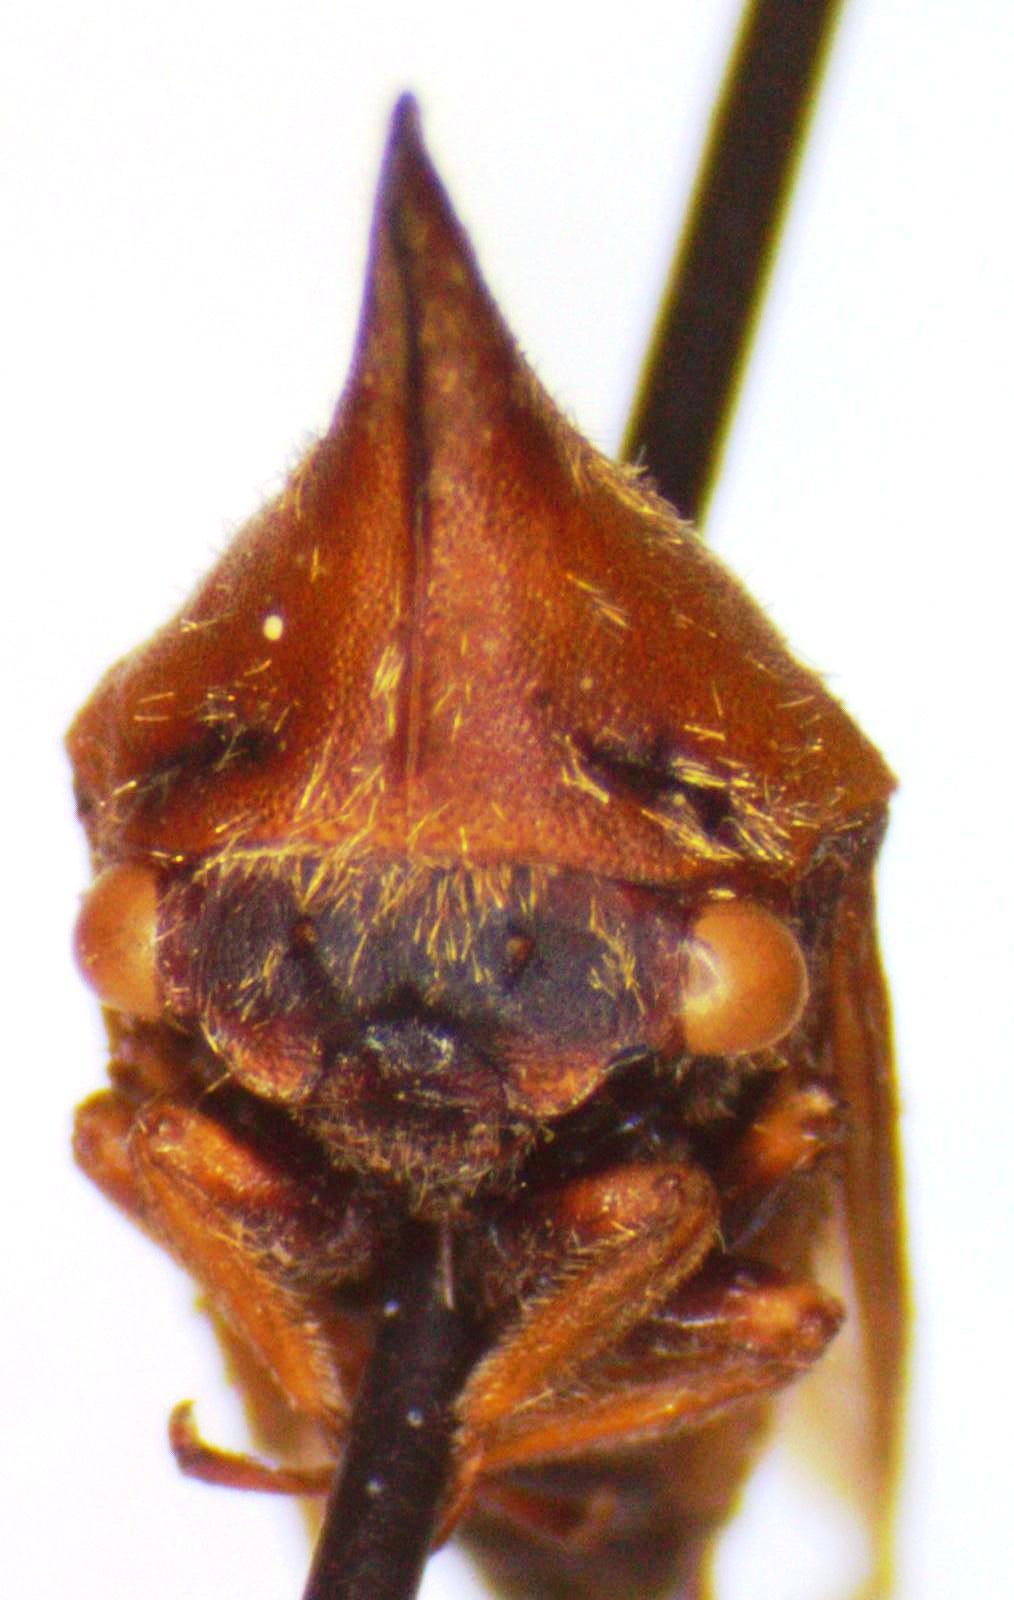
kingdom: Animalia
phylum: Arthropoda
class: Insecta
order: Hemiptera
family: Membracidae
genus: Guayaquila
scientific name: Guayaquila pallescens
